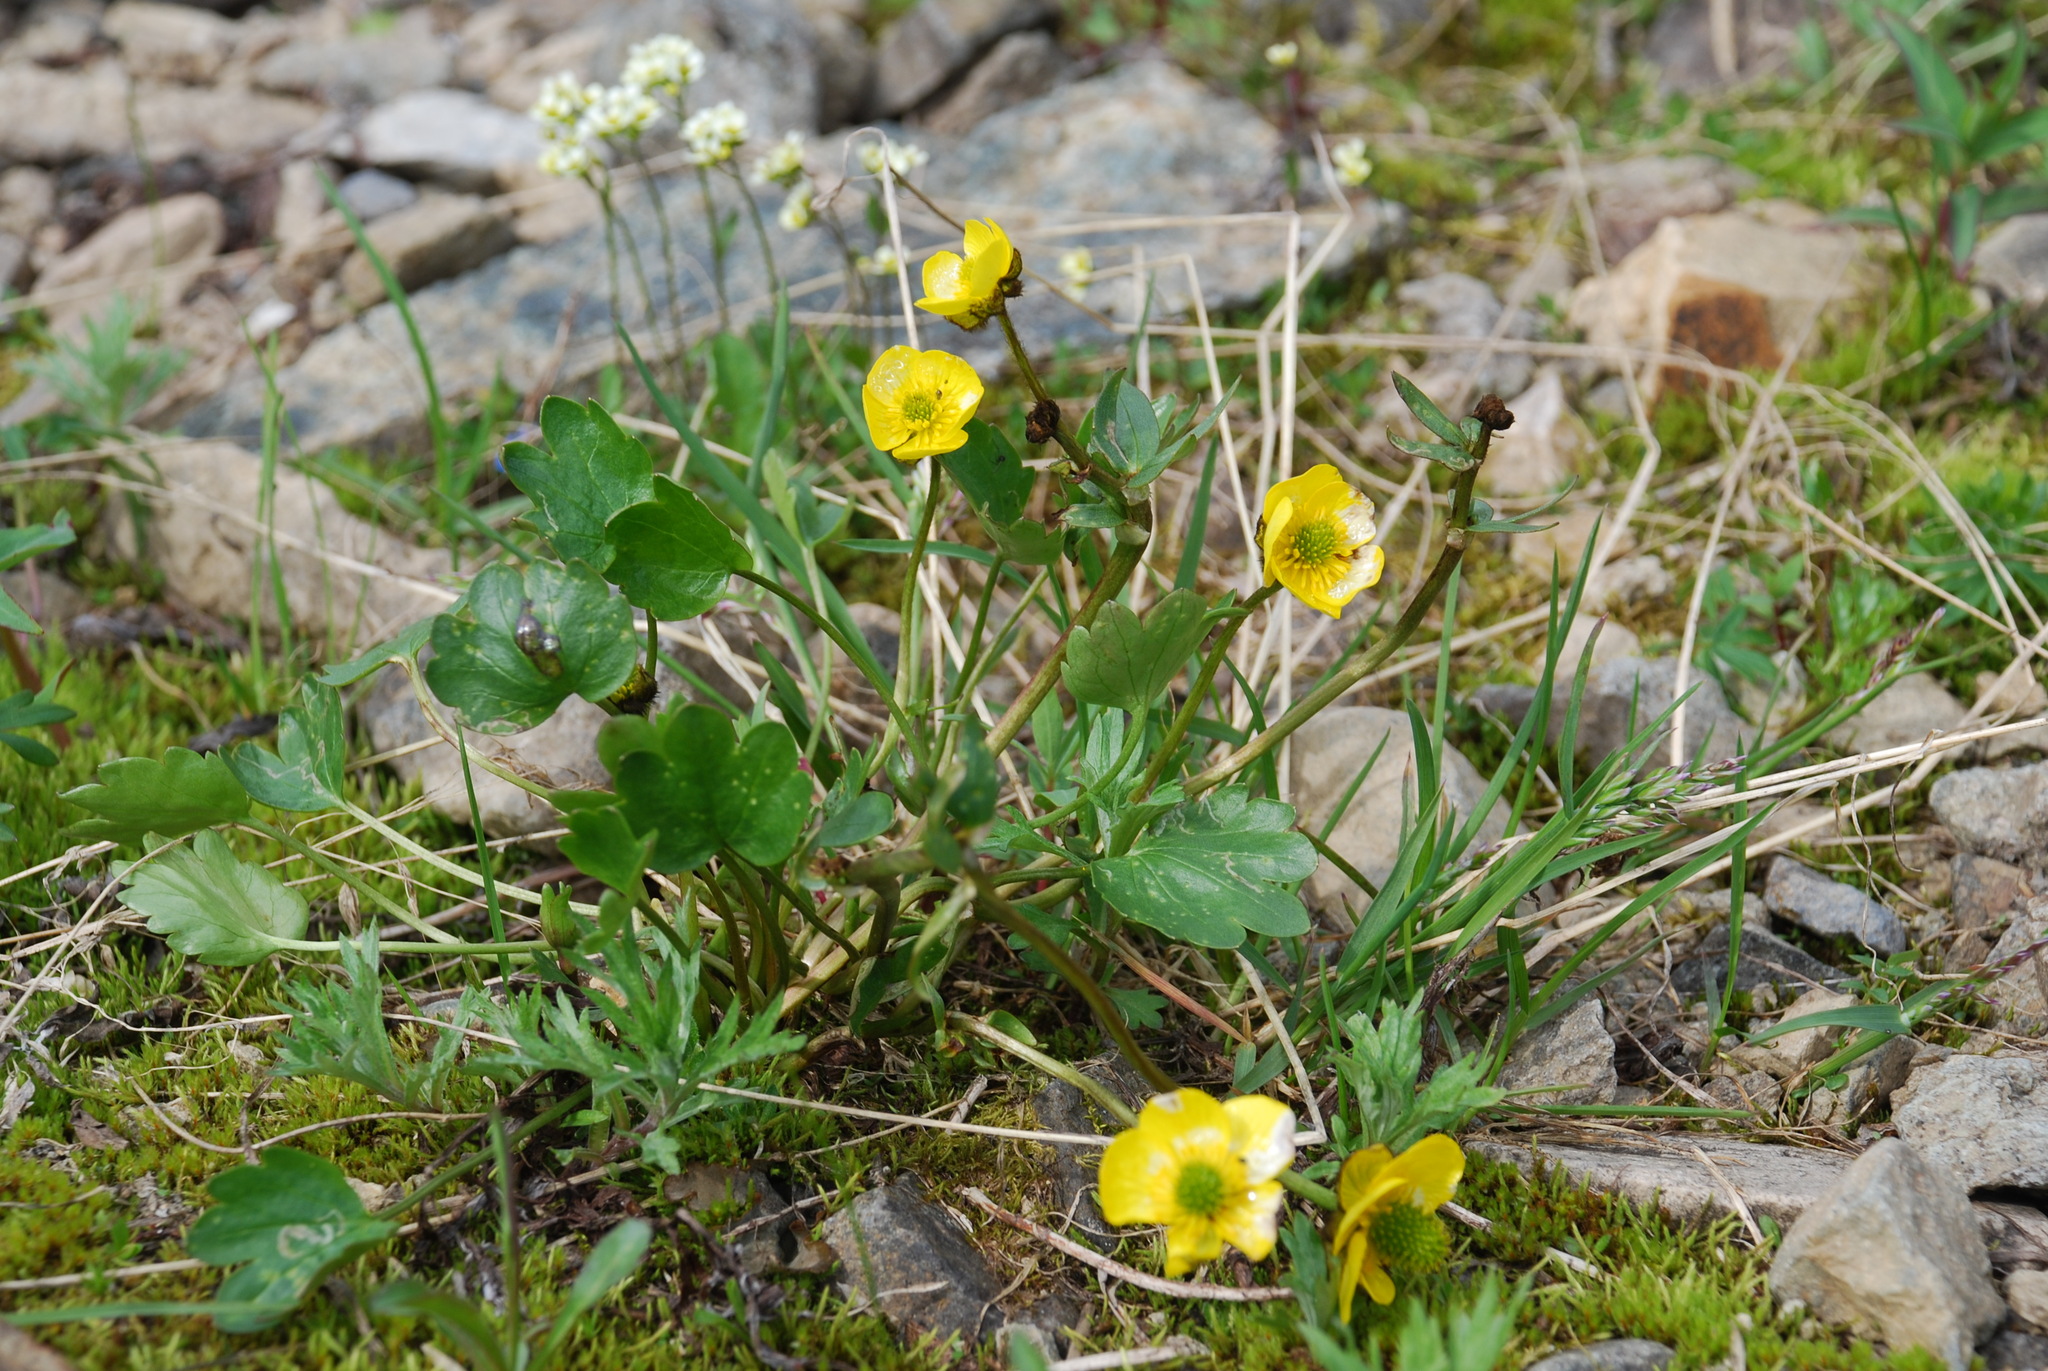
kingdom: Plantae
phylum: Tracheophyta
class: Magnoliopsida
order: Ranunculales
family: Ranunculaceae
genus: Ranunculus
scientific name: Ranunculus sulphureus
